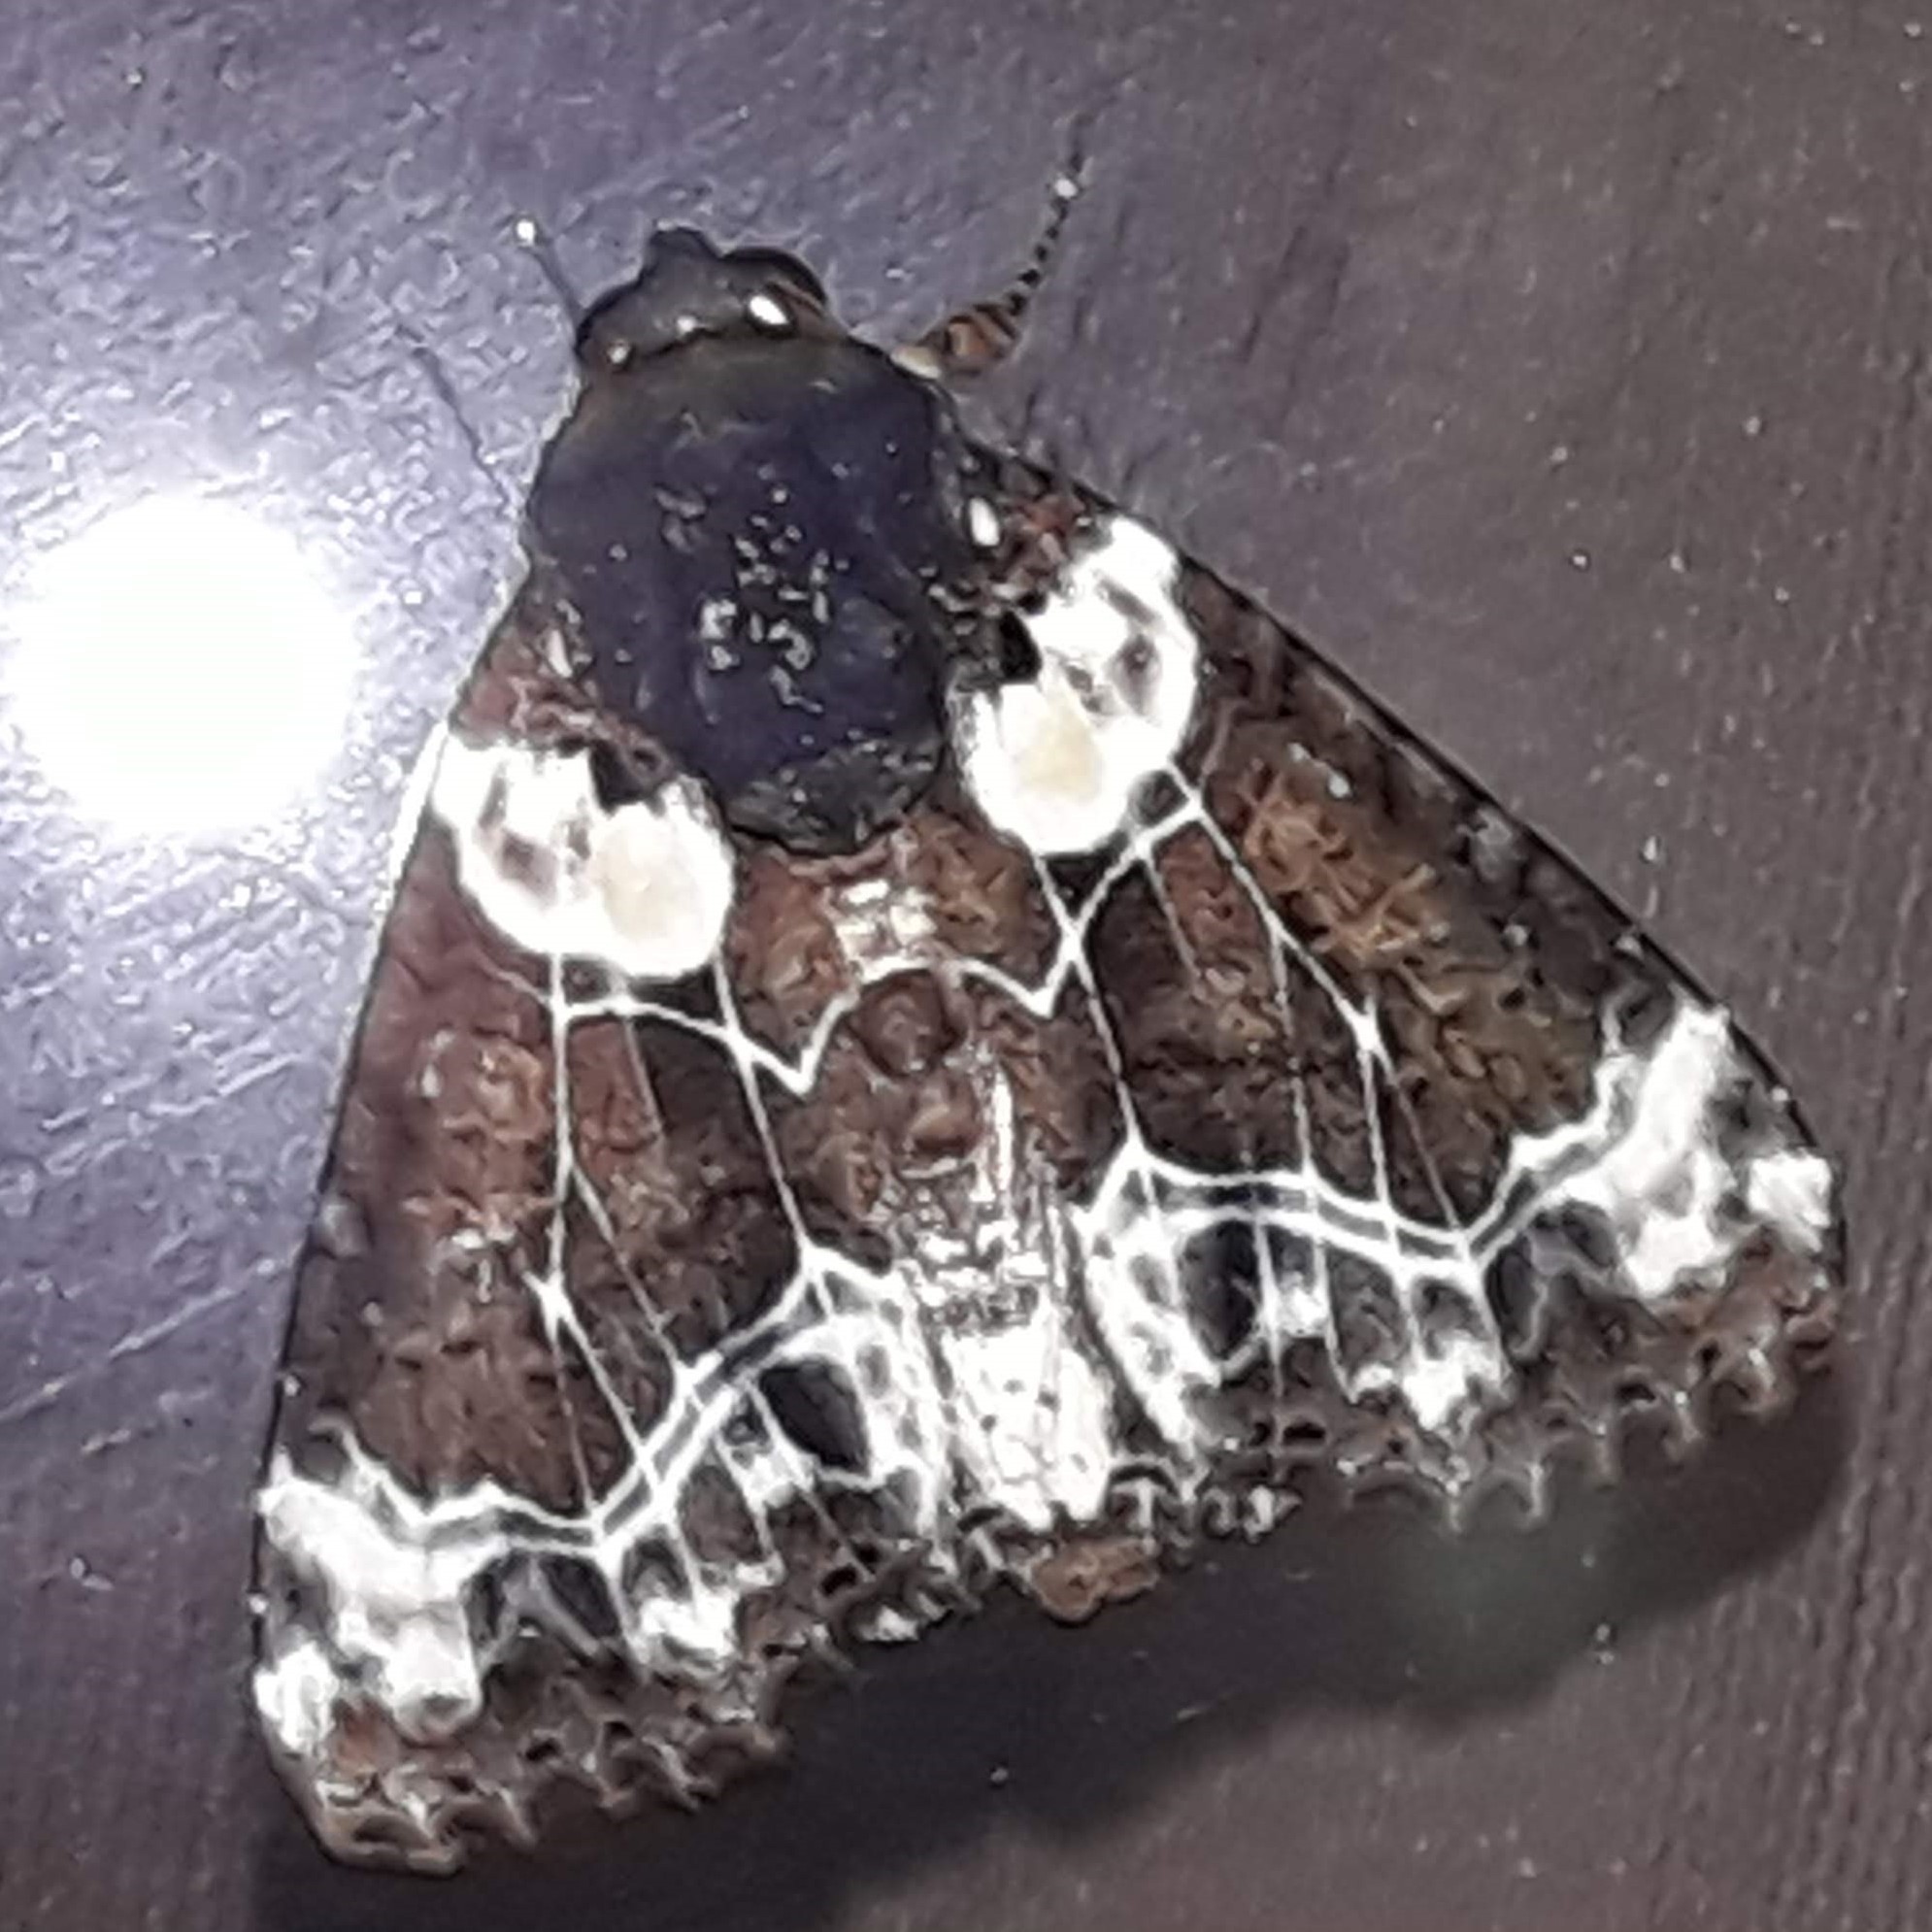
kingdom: Animalia
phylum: Arthropoda
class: Insecta
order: Lepidoptera
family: Noctuidae
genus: Cropia
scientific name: Cropia cedica
